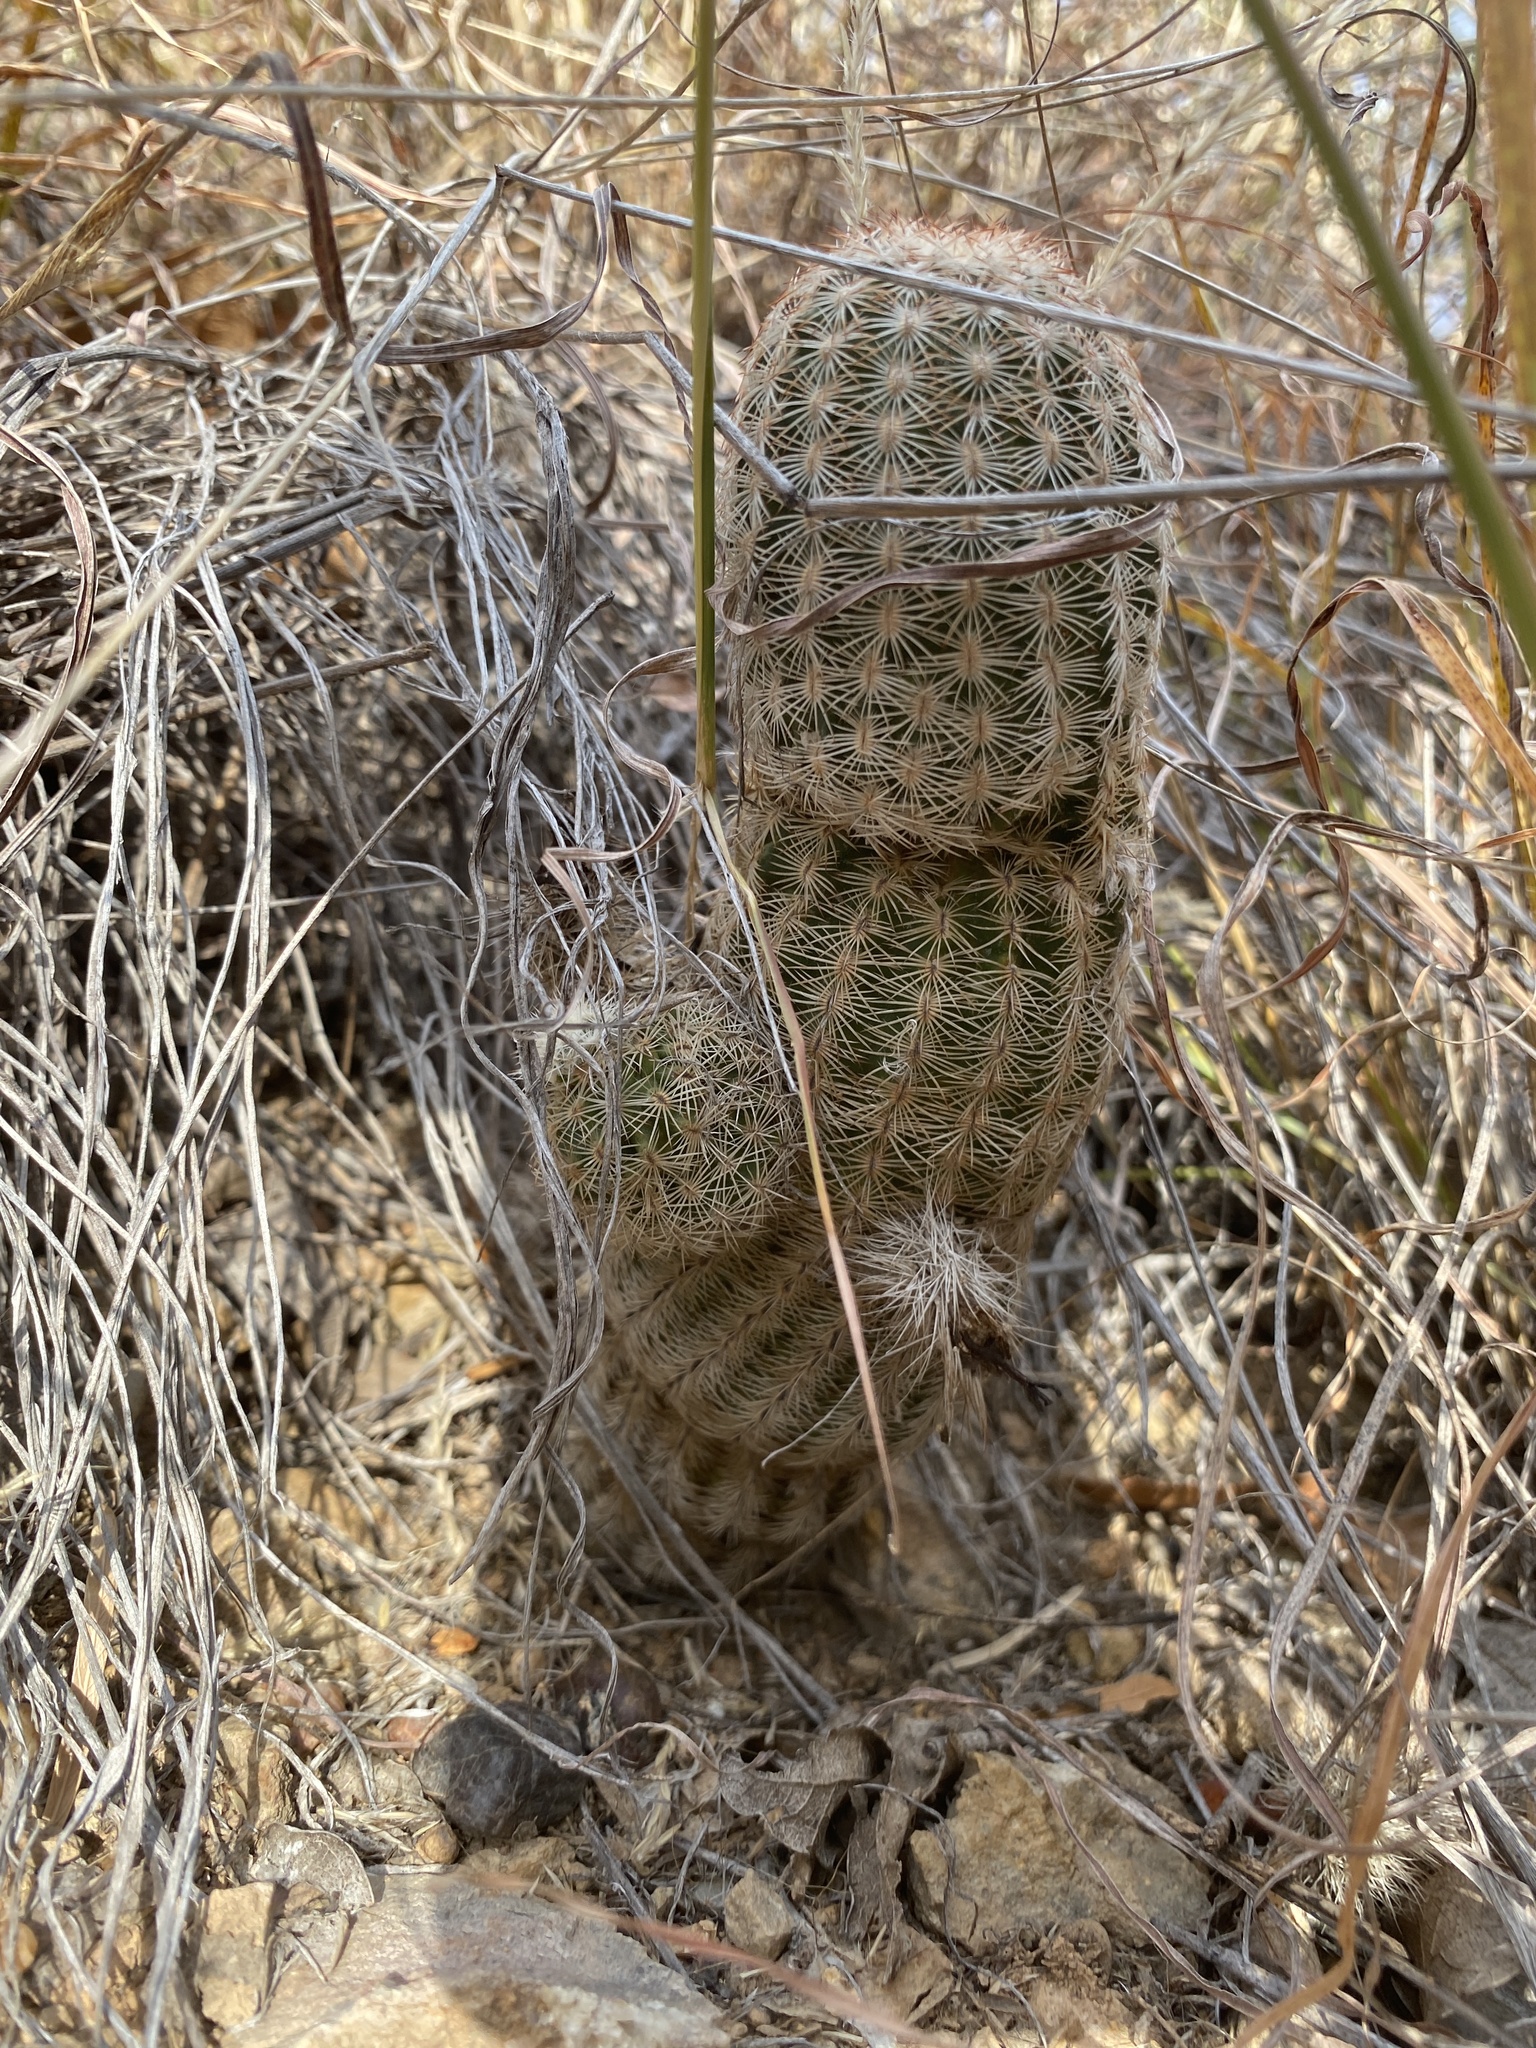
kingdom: Plantae
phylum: Tracheophyta
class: Magnoliopsida
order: Caryophyllales
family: Cactaceae
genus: Echinocereus
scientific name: Echinocereus reichenbachii
